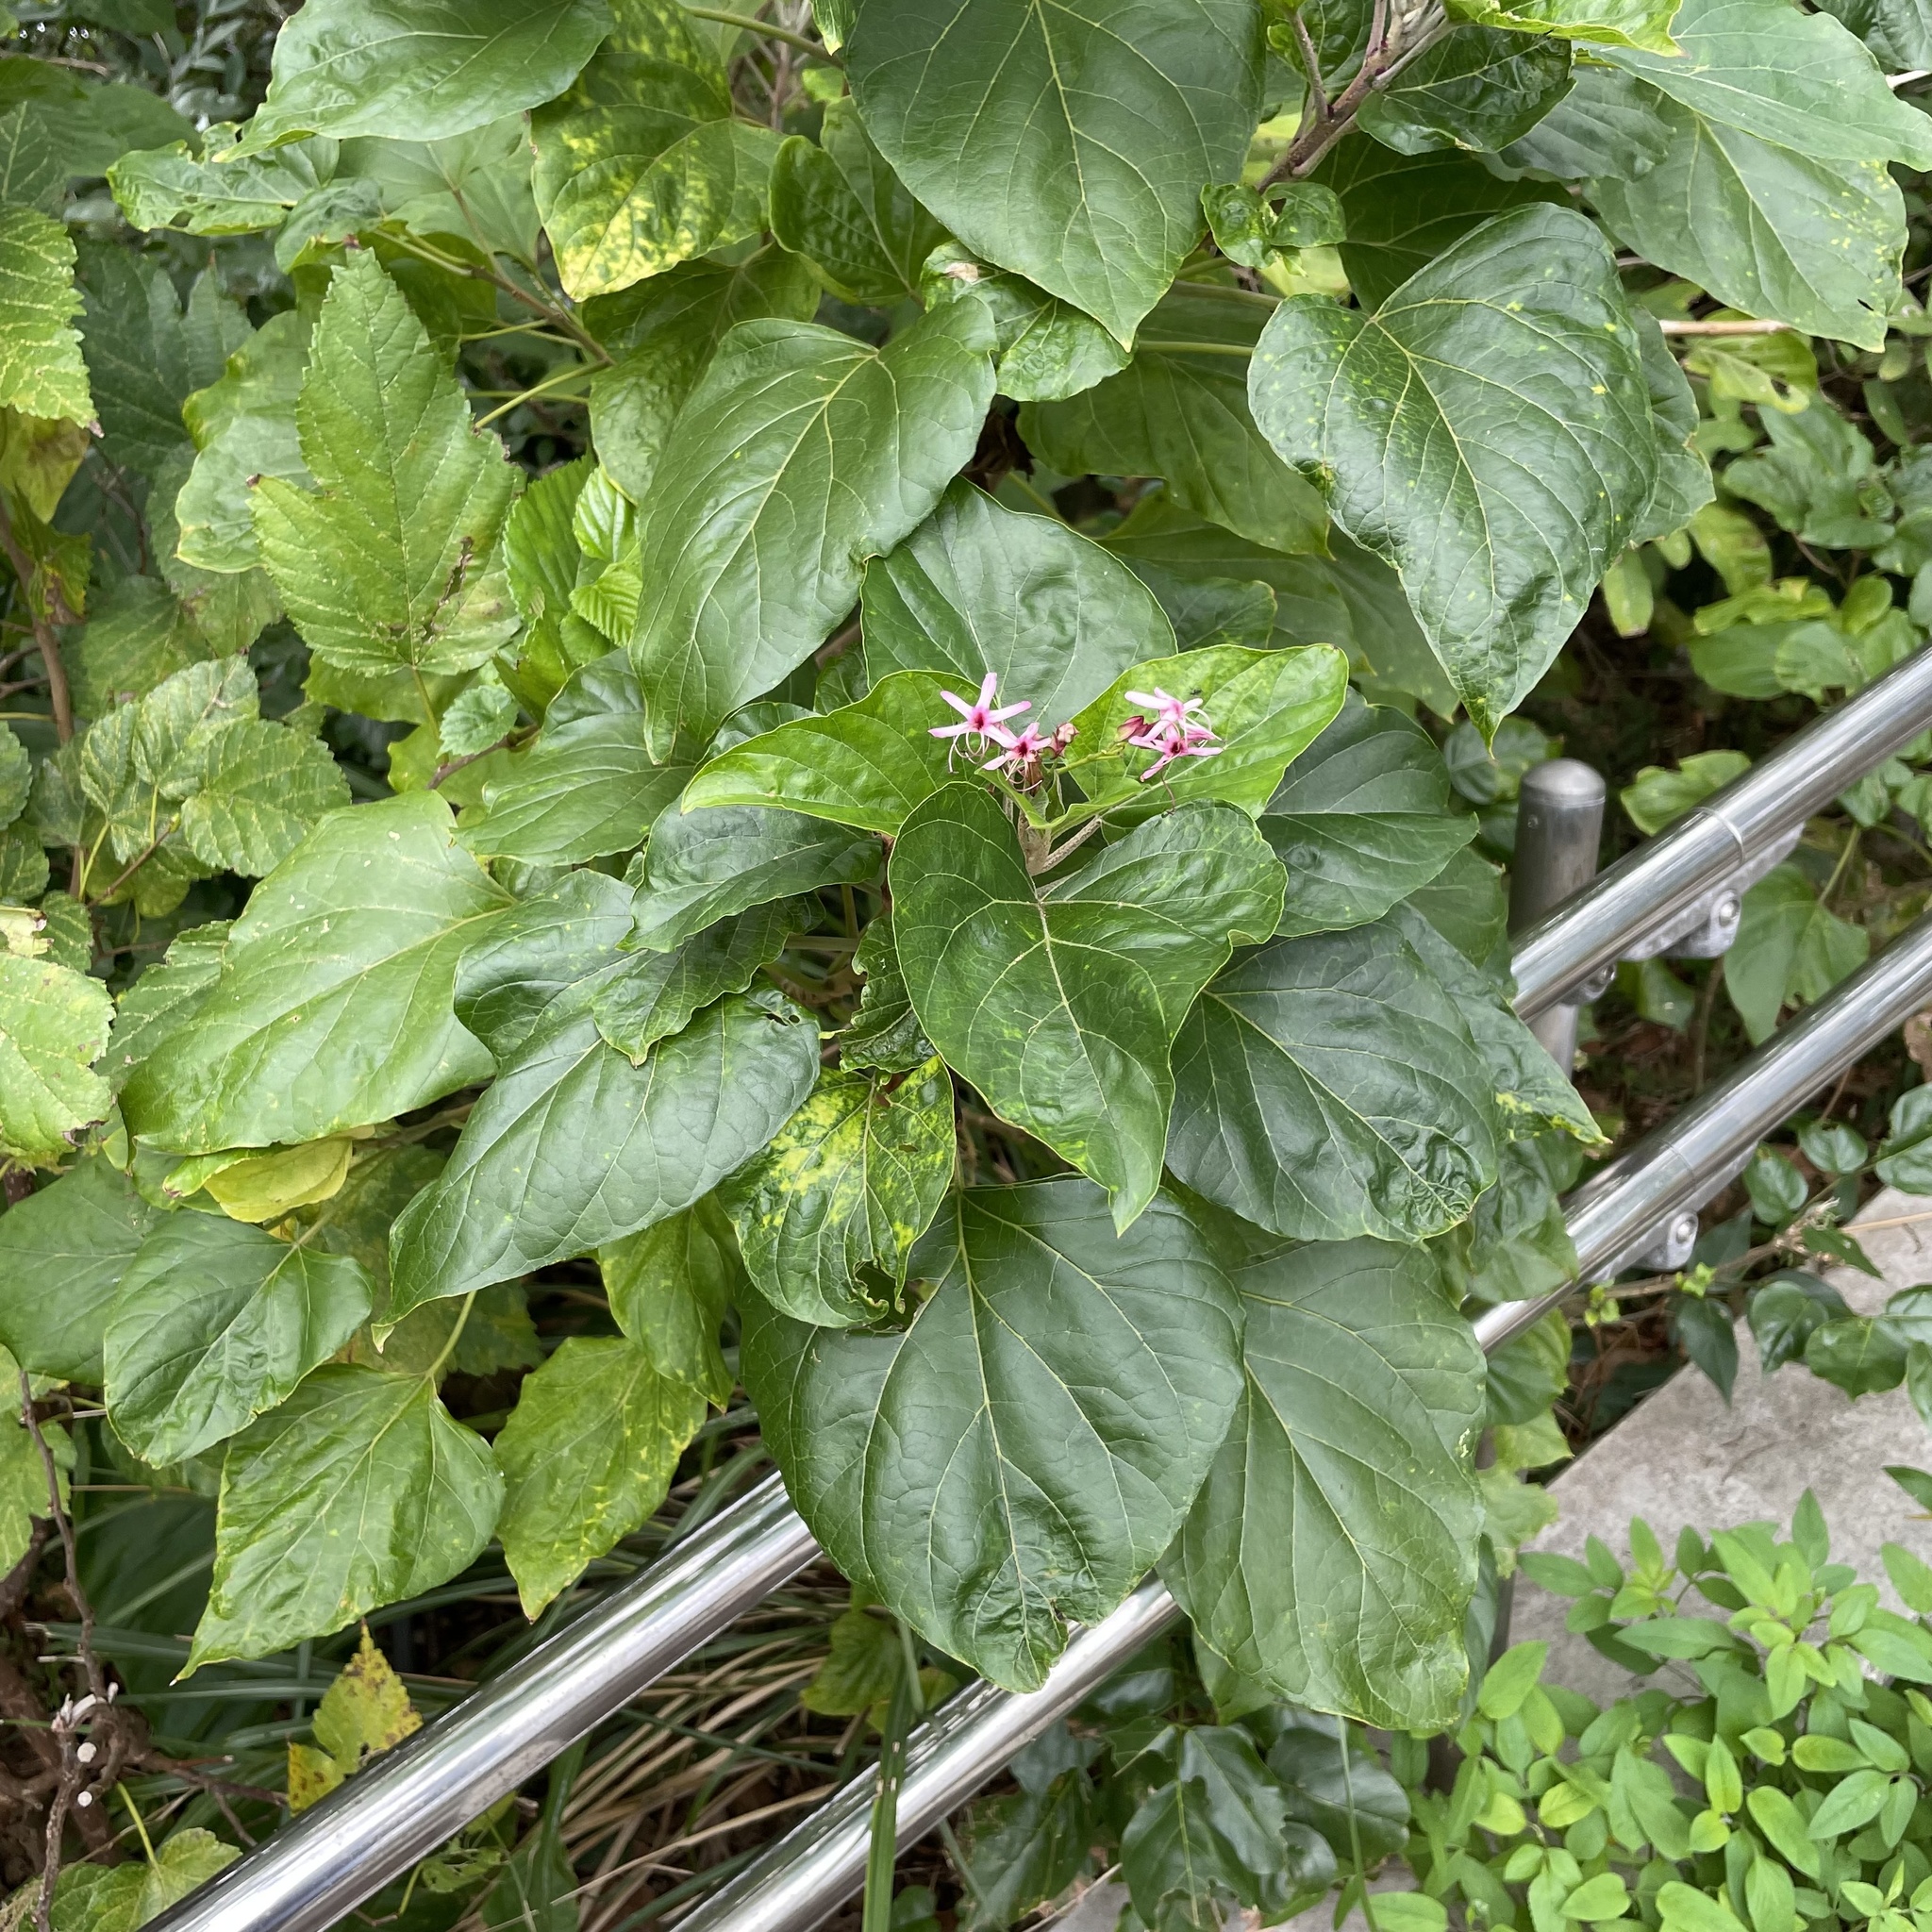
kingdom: Plantae
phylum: Tracheophyta
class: Magnoliopsida
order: Lamiales
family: Lamiaceae
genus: Clerodendrum
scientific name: Clerodendrum trichotomum
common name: Harlequin glorybower
